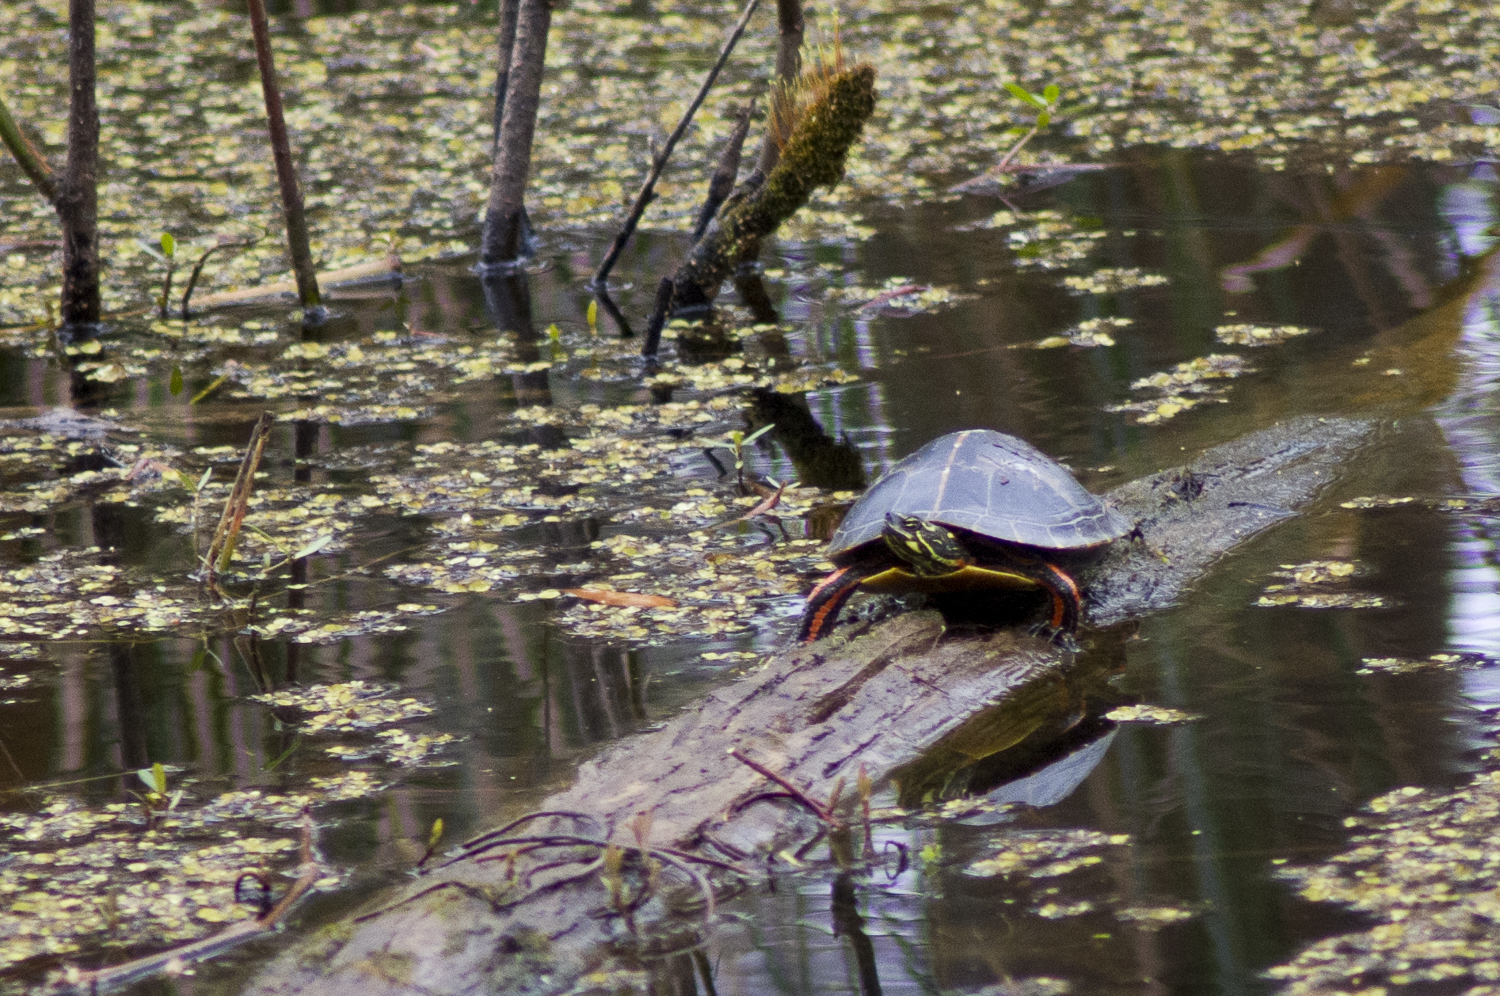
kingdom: Animalia
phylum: Chordata
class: Testudines
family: Emydidae
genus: Chrysemys
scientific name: Chrysemys dorsalis
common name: Southern painted turtle
